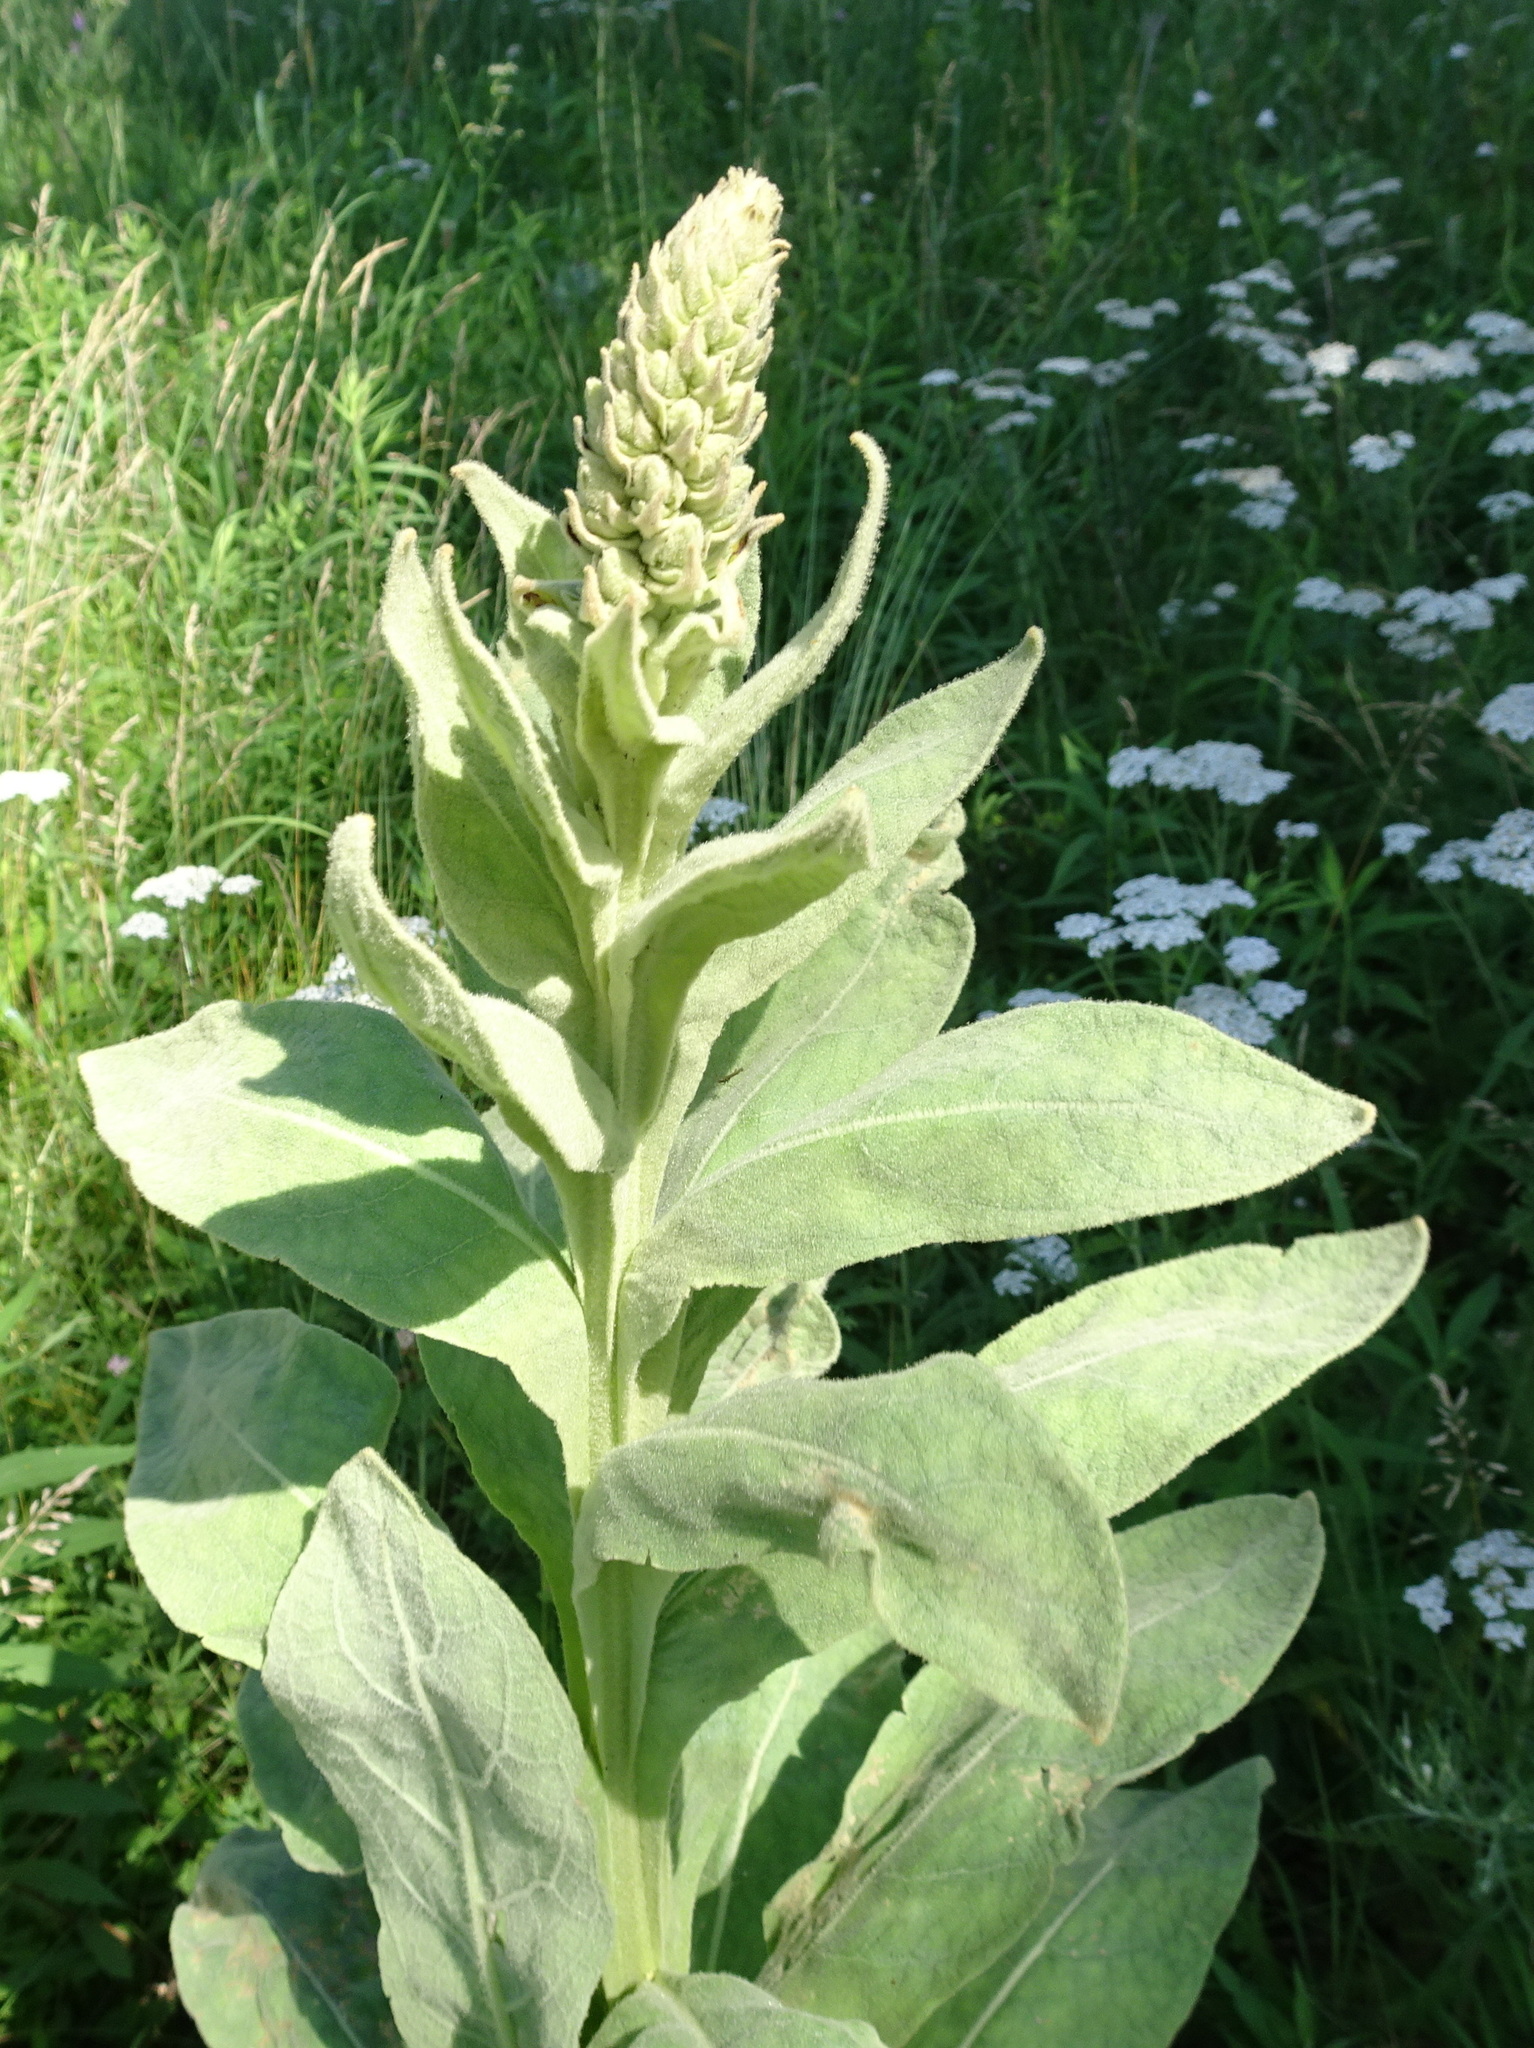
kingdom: Plantae
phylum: Tracheophyta
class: Magnoliopsida
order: Lamiales
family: Scrophulariaceae
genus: Verbascum
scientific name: Verbascum thapsus
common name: Common mullein
